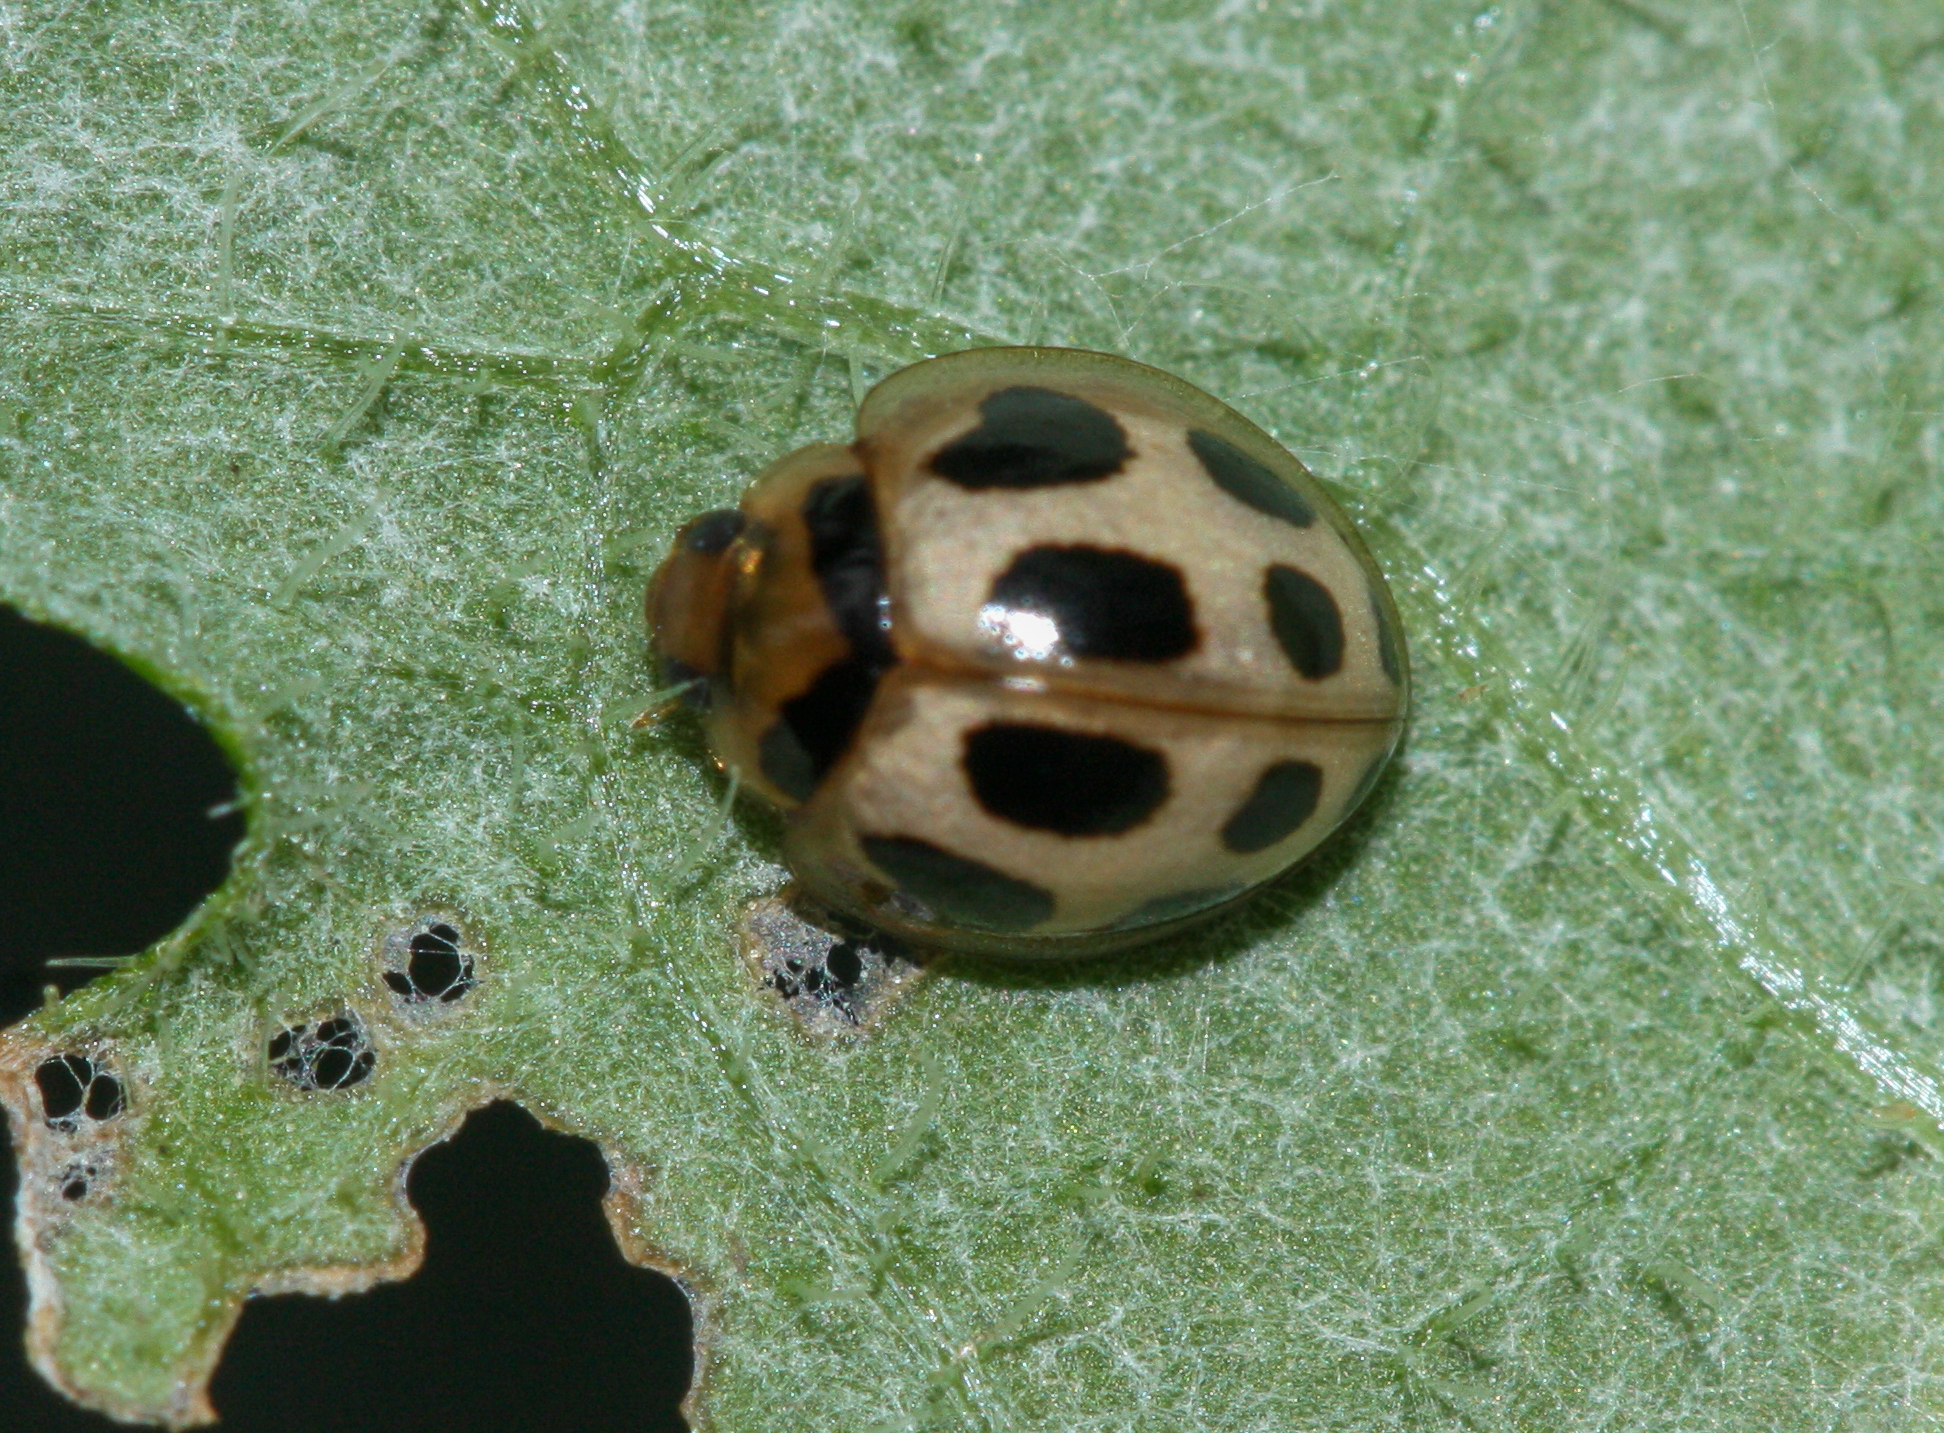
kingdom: Animalia
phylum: Arthropoda
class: Insecta
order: Coleoptera
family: Coccinellidae
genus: Zagreus
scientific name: Zagreus
